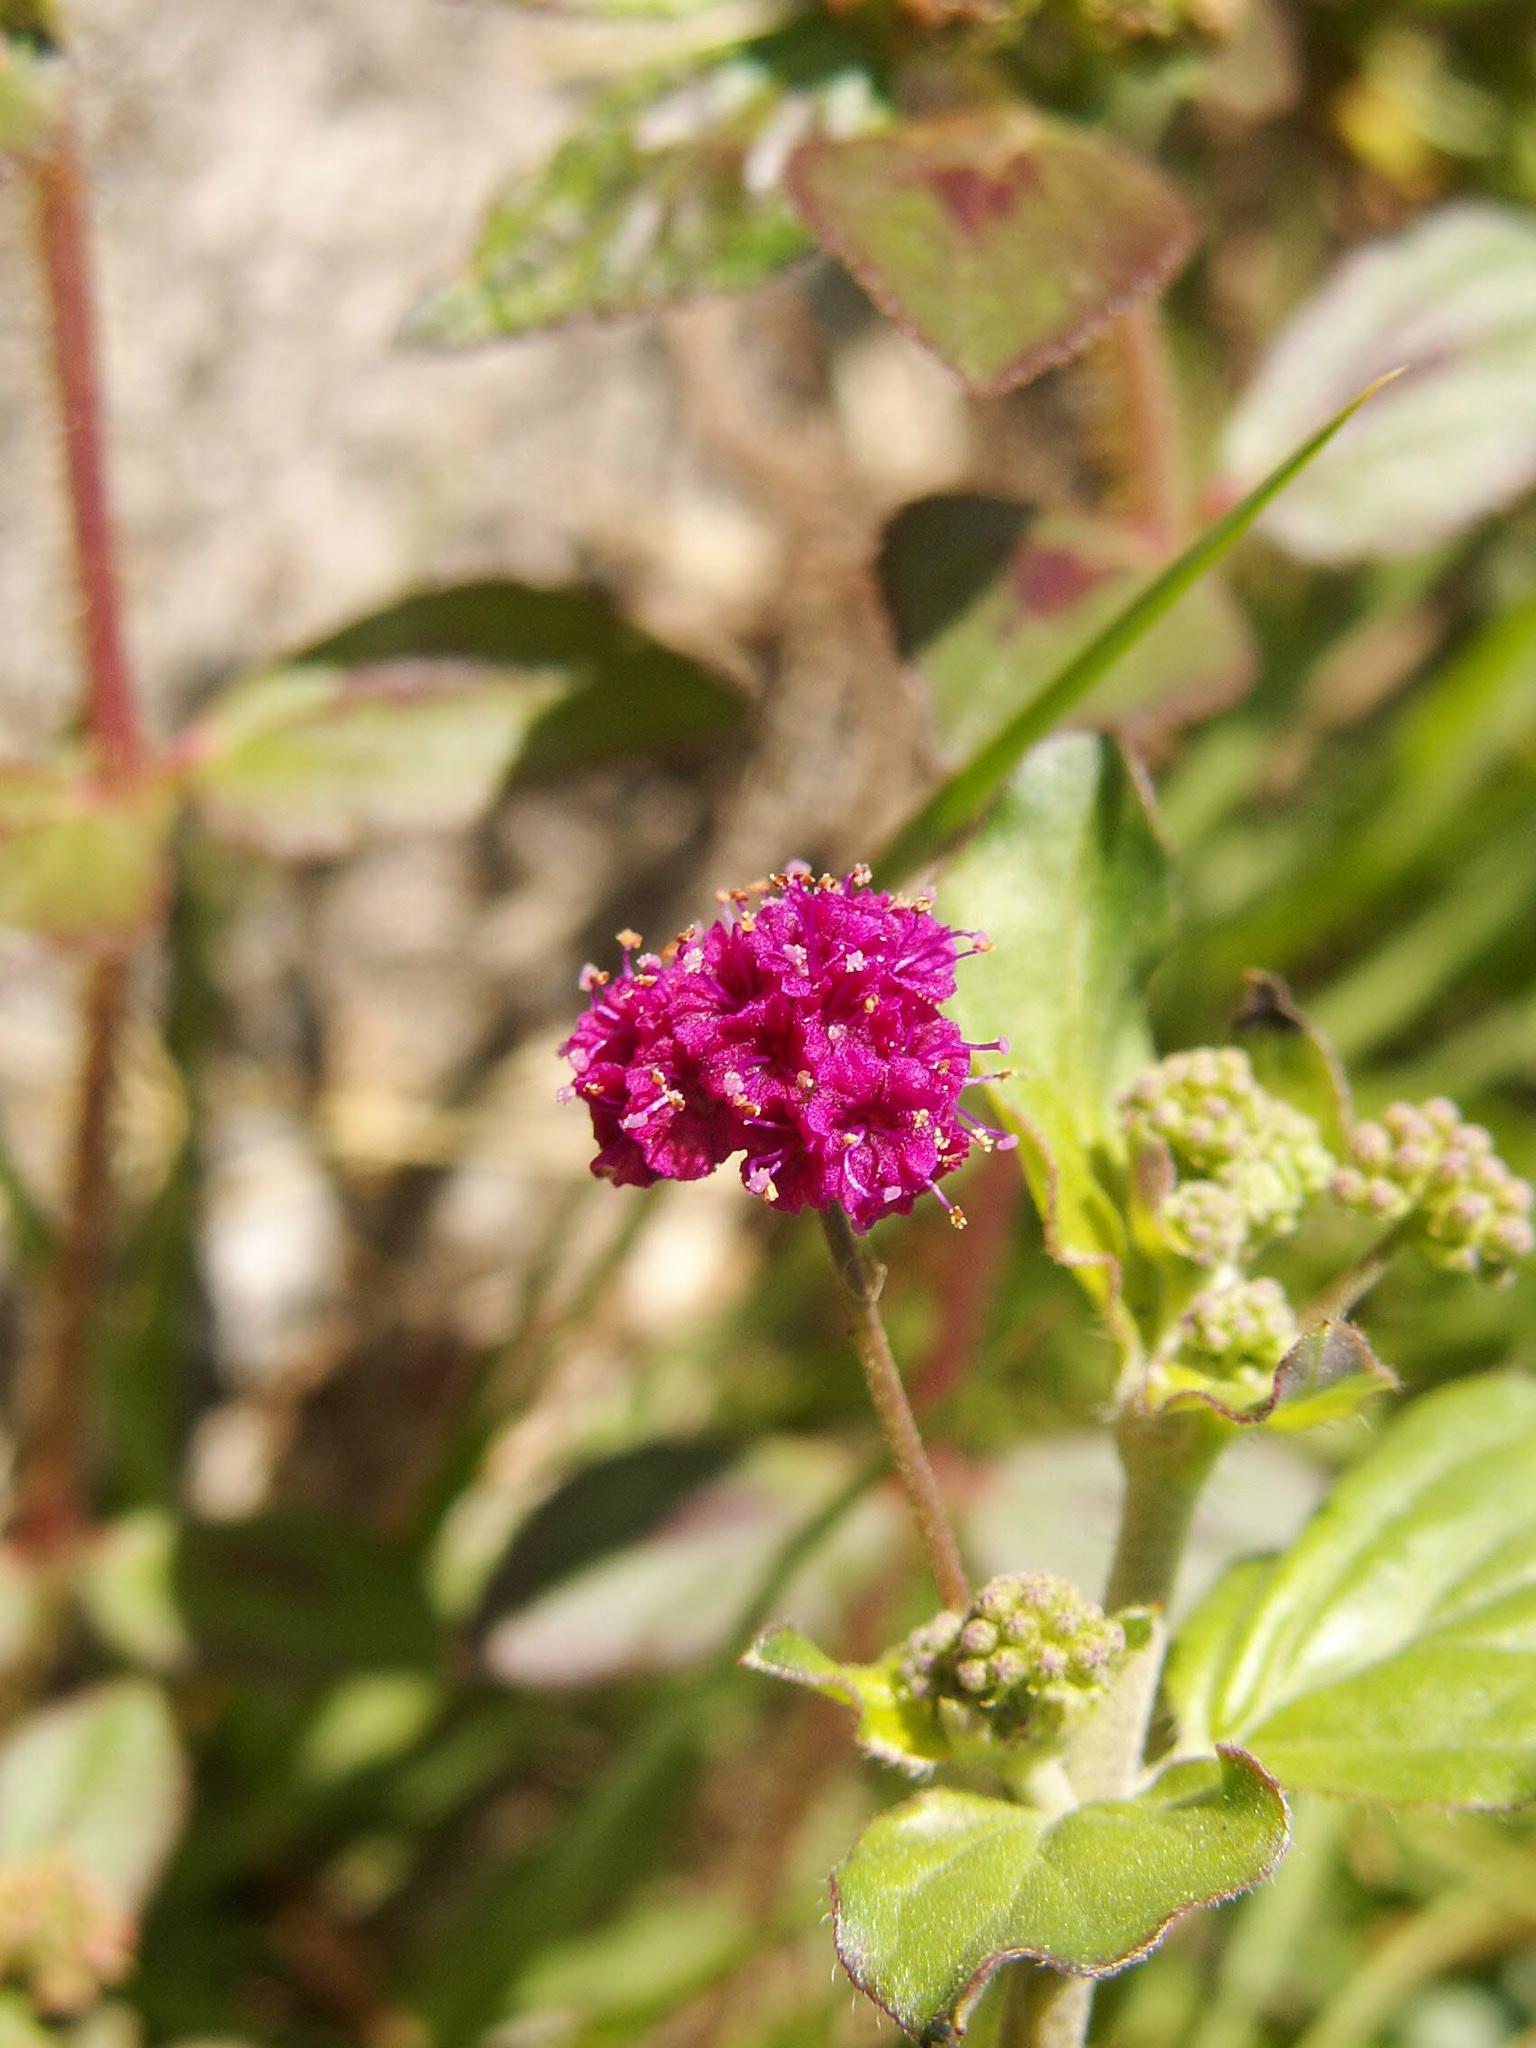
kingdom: Plantae
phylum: Tracheophyta
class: Magnoliopsida
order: Caryophyllales
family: Nyctaginaceae
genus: Boerhavia
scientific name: Boerhavia coccinea
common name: Scarlet spiderling
